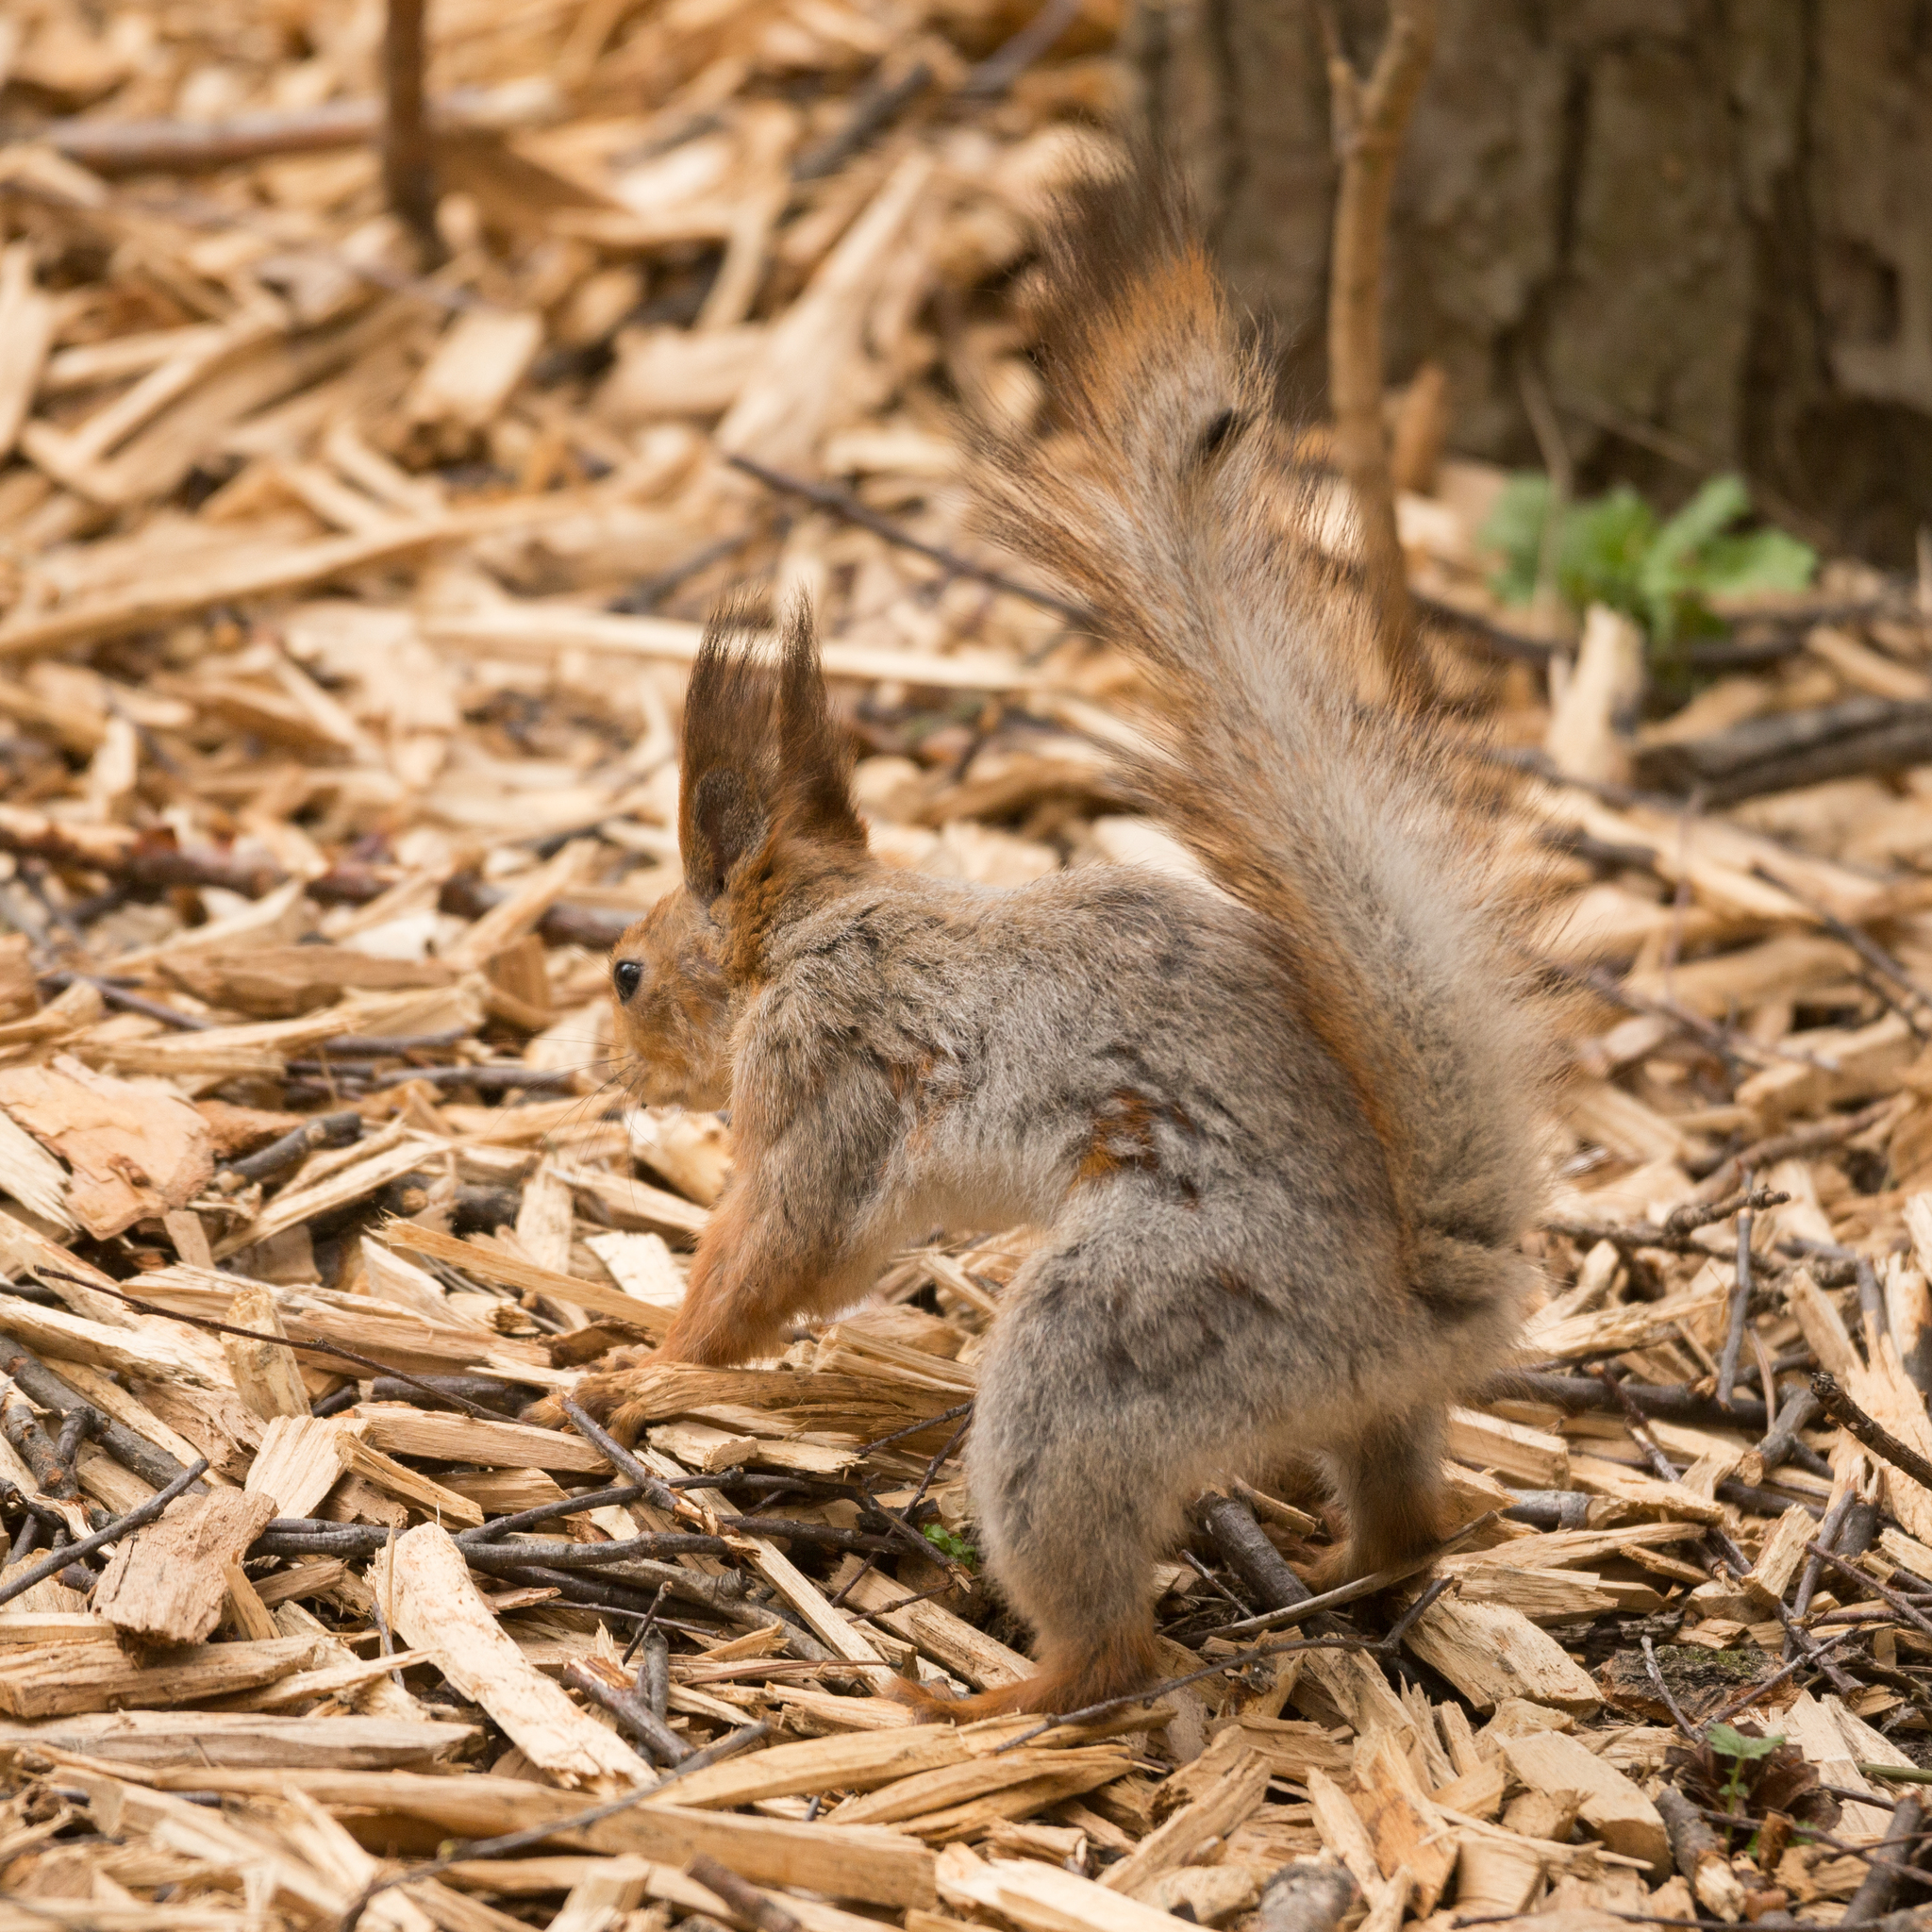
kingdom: Animalia
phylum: Chordata
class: Mammalia
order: Rodentia
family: Sciuridae
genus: Sciurus
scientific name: Sciurus vulgaris
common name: Eurasian red squirrel
